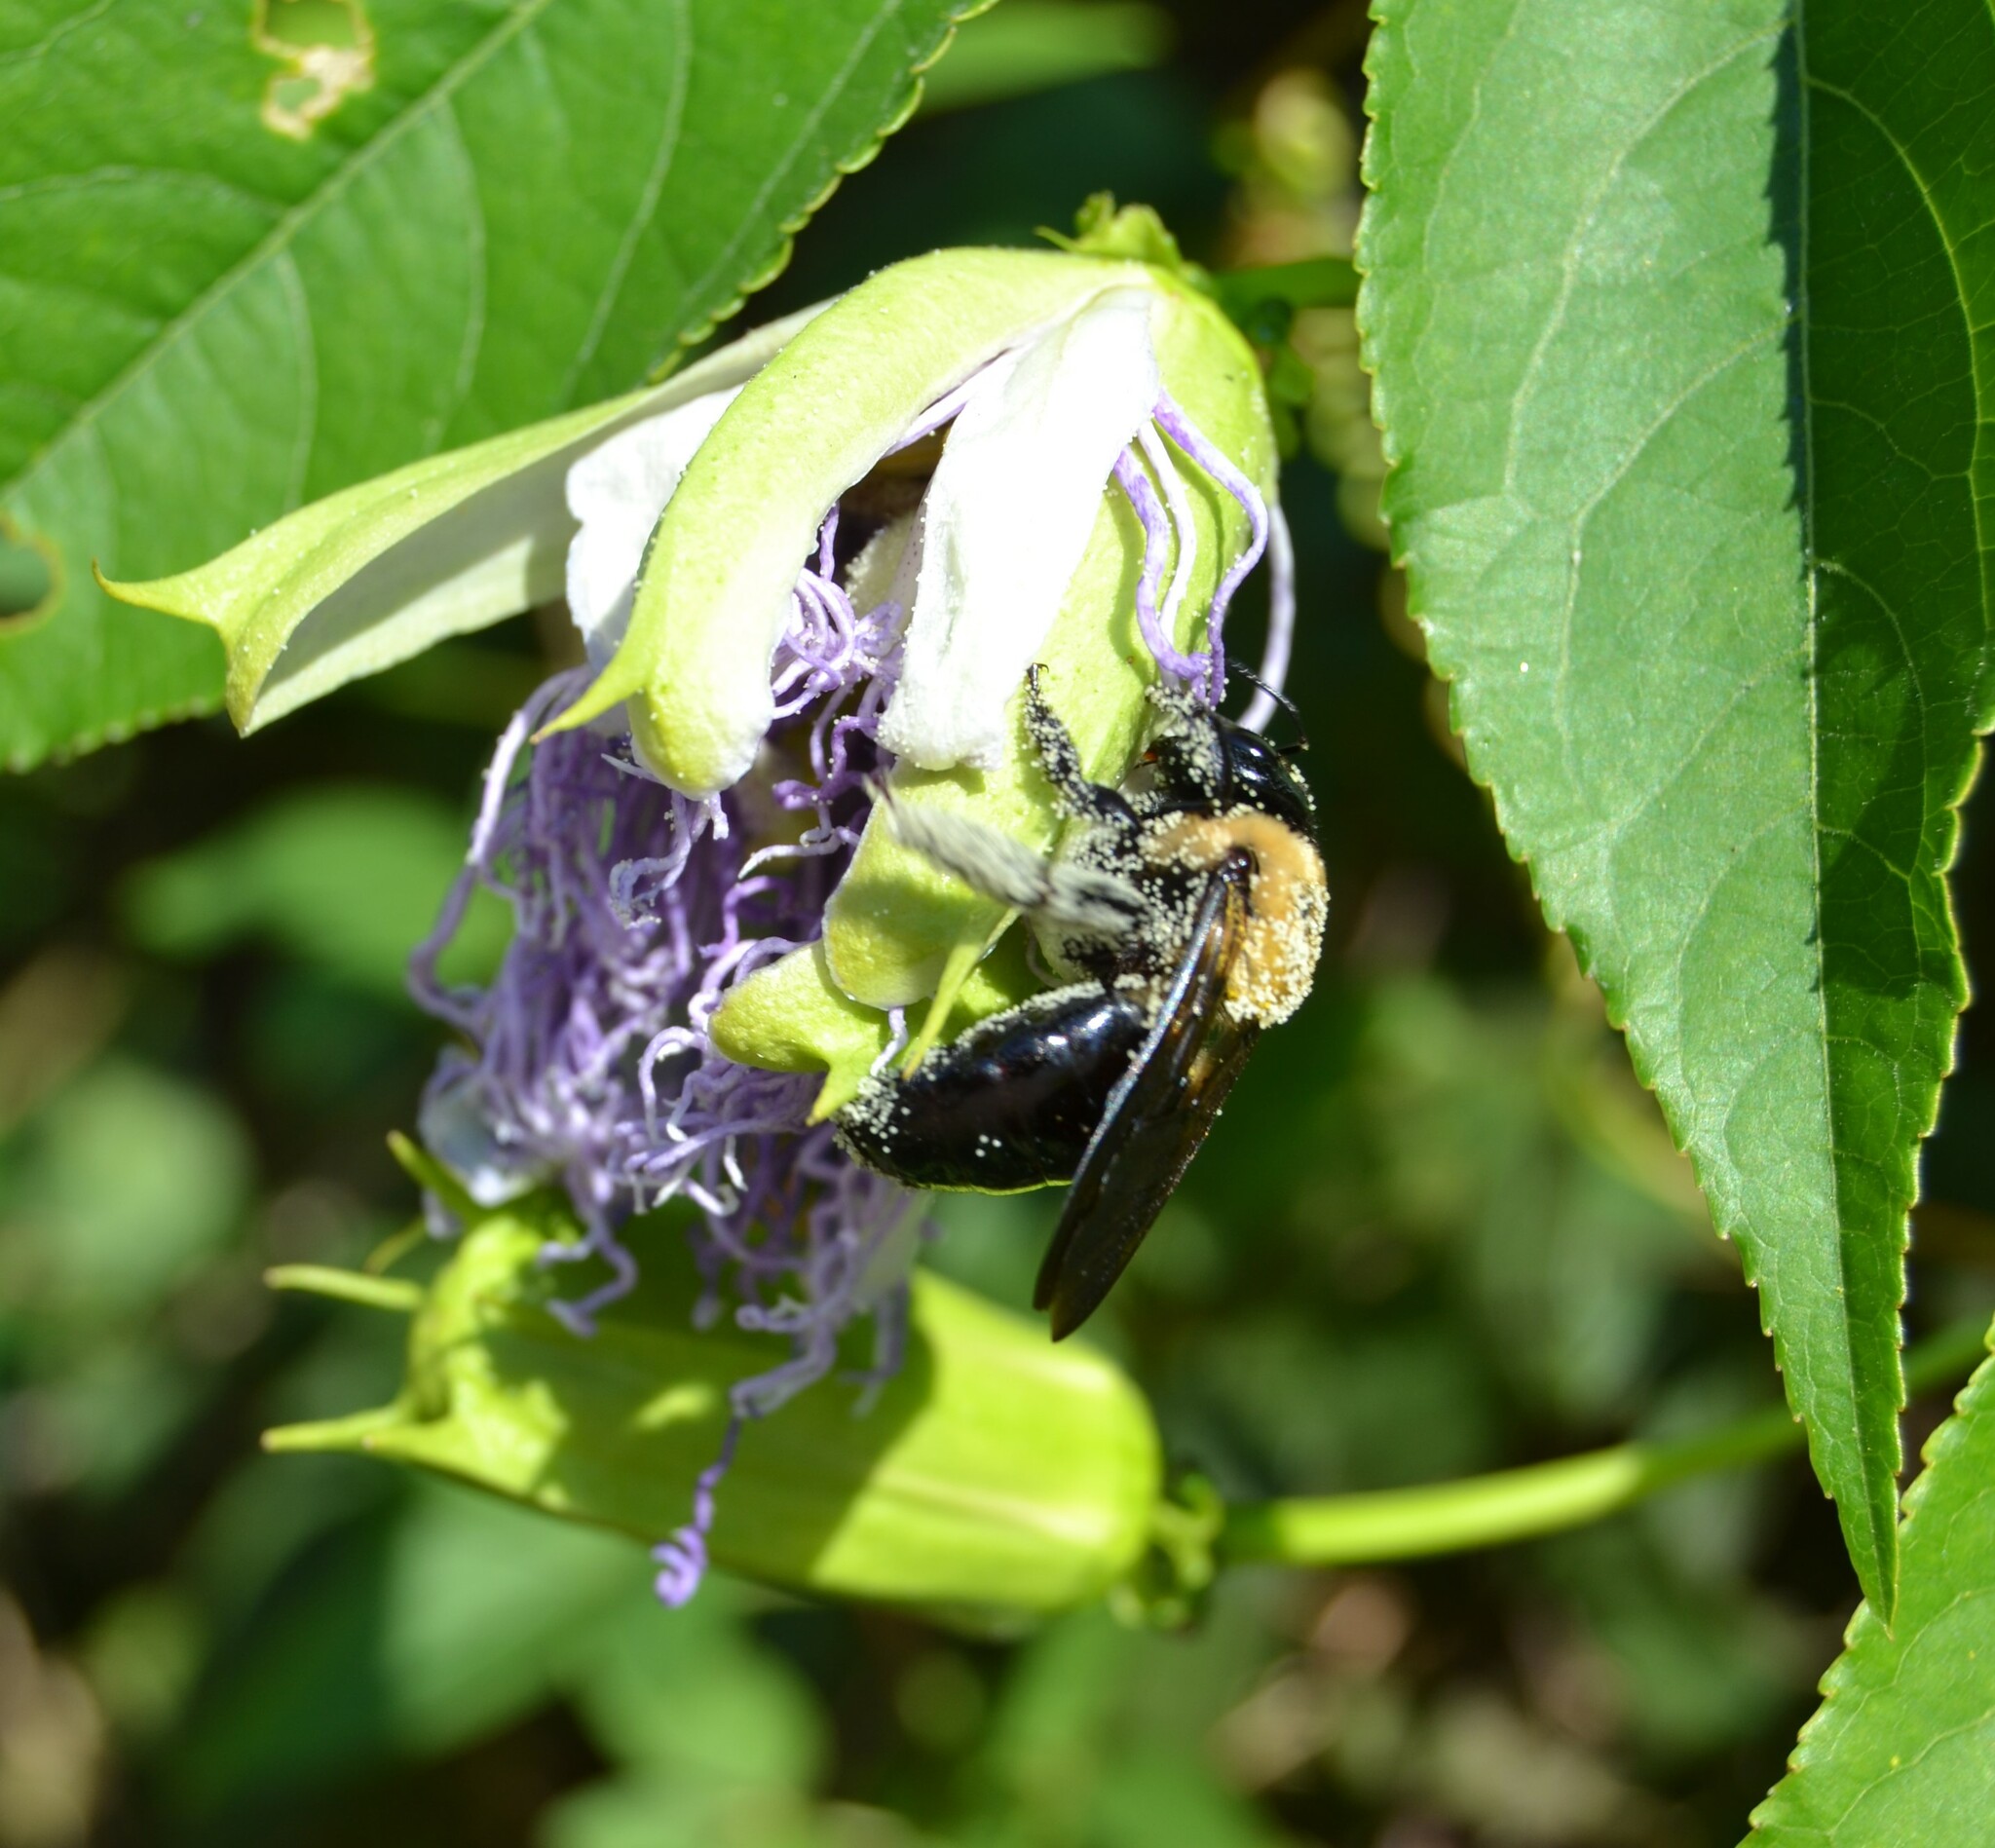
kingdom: Animalia
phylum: Arthropoda
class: Insecta
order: Hymenoptera
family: Apidae
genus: Xylocopa
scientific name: Xylocopa virginica
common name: Carpenter bee
